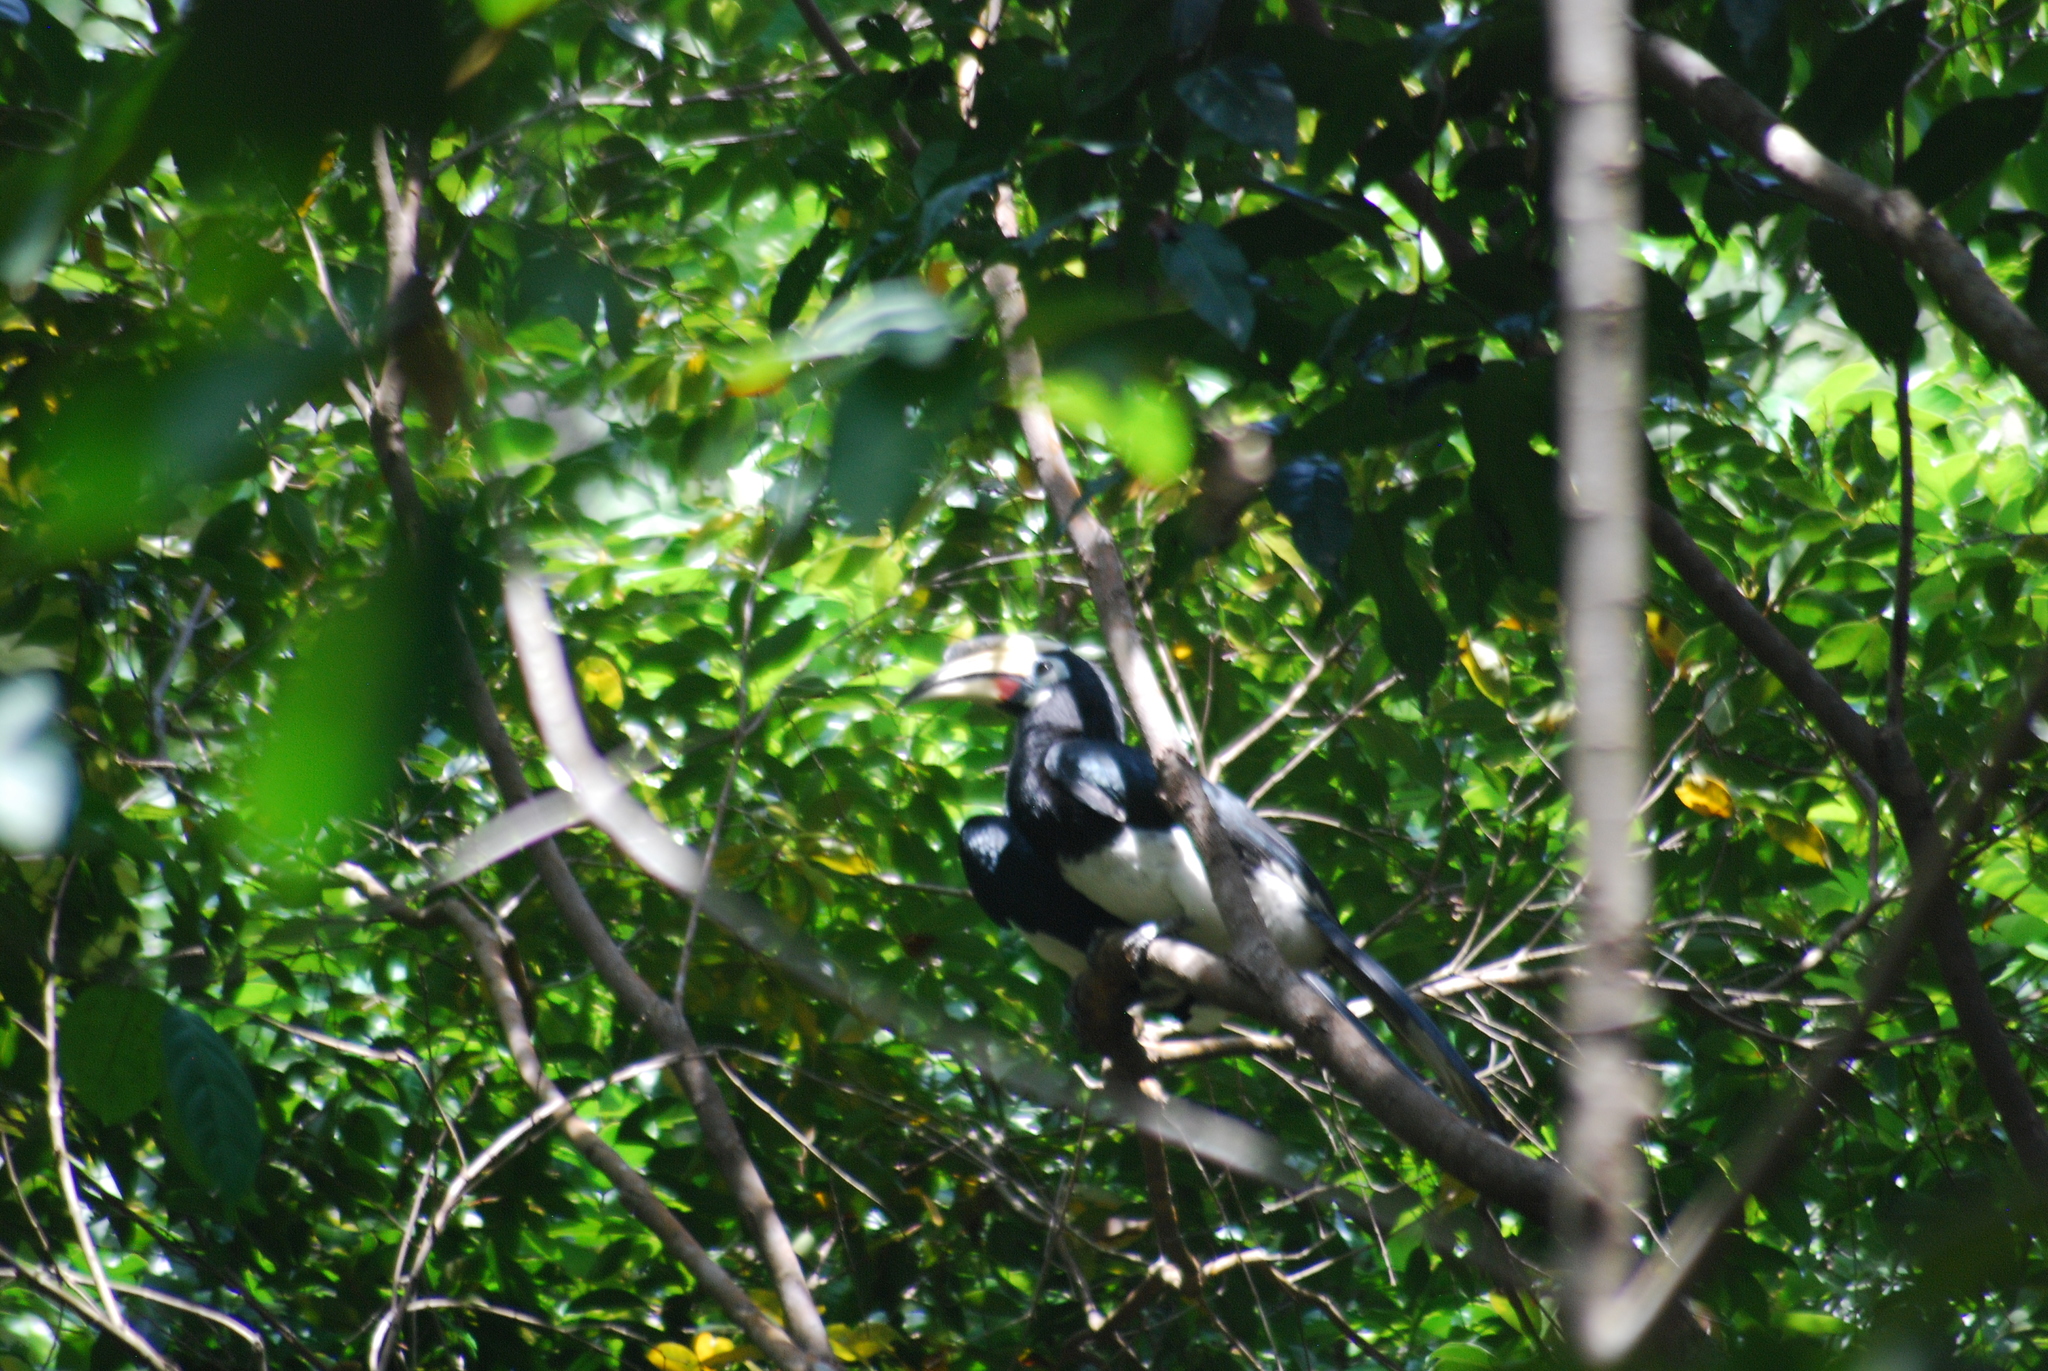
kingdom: Animalia
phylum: Chordata
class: Aves
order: Bucerotiformes
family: Bucerotidae
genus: Anthracoceros
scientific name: Anthracoceros albirostris
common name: Oriental pied-hornbill
